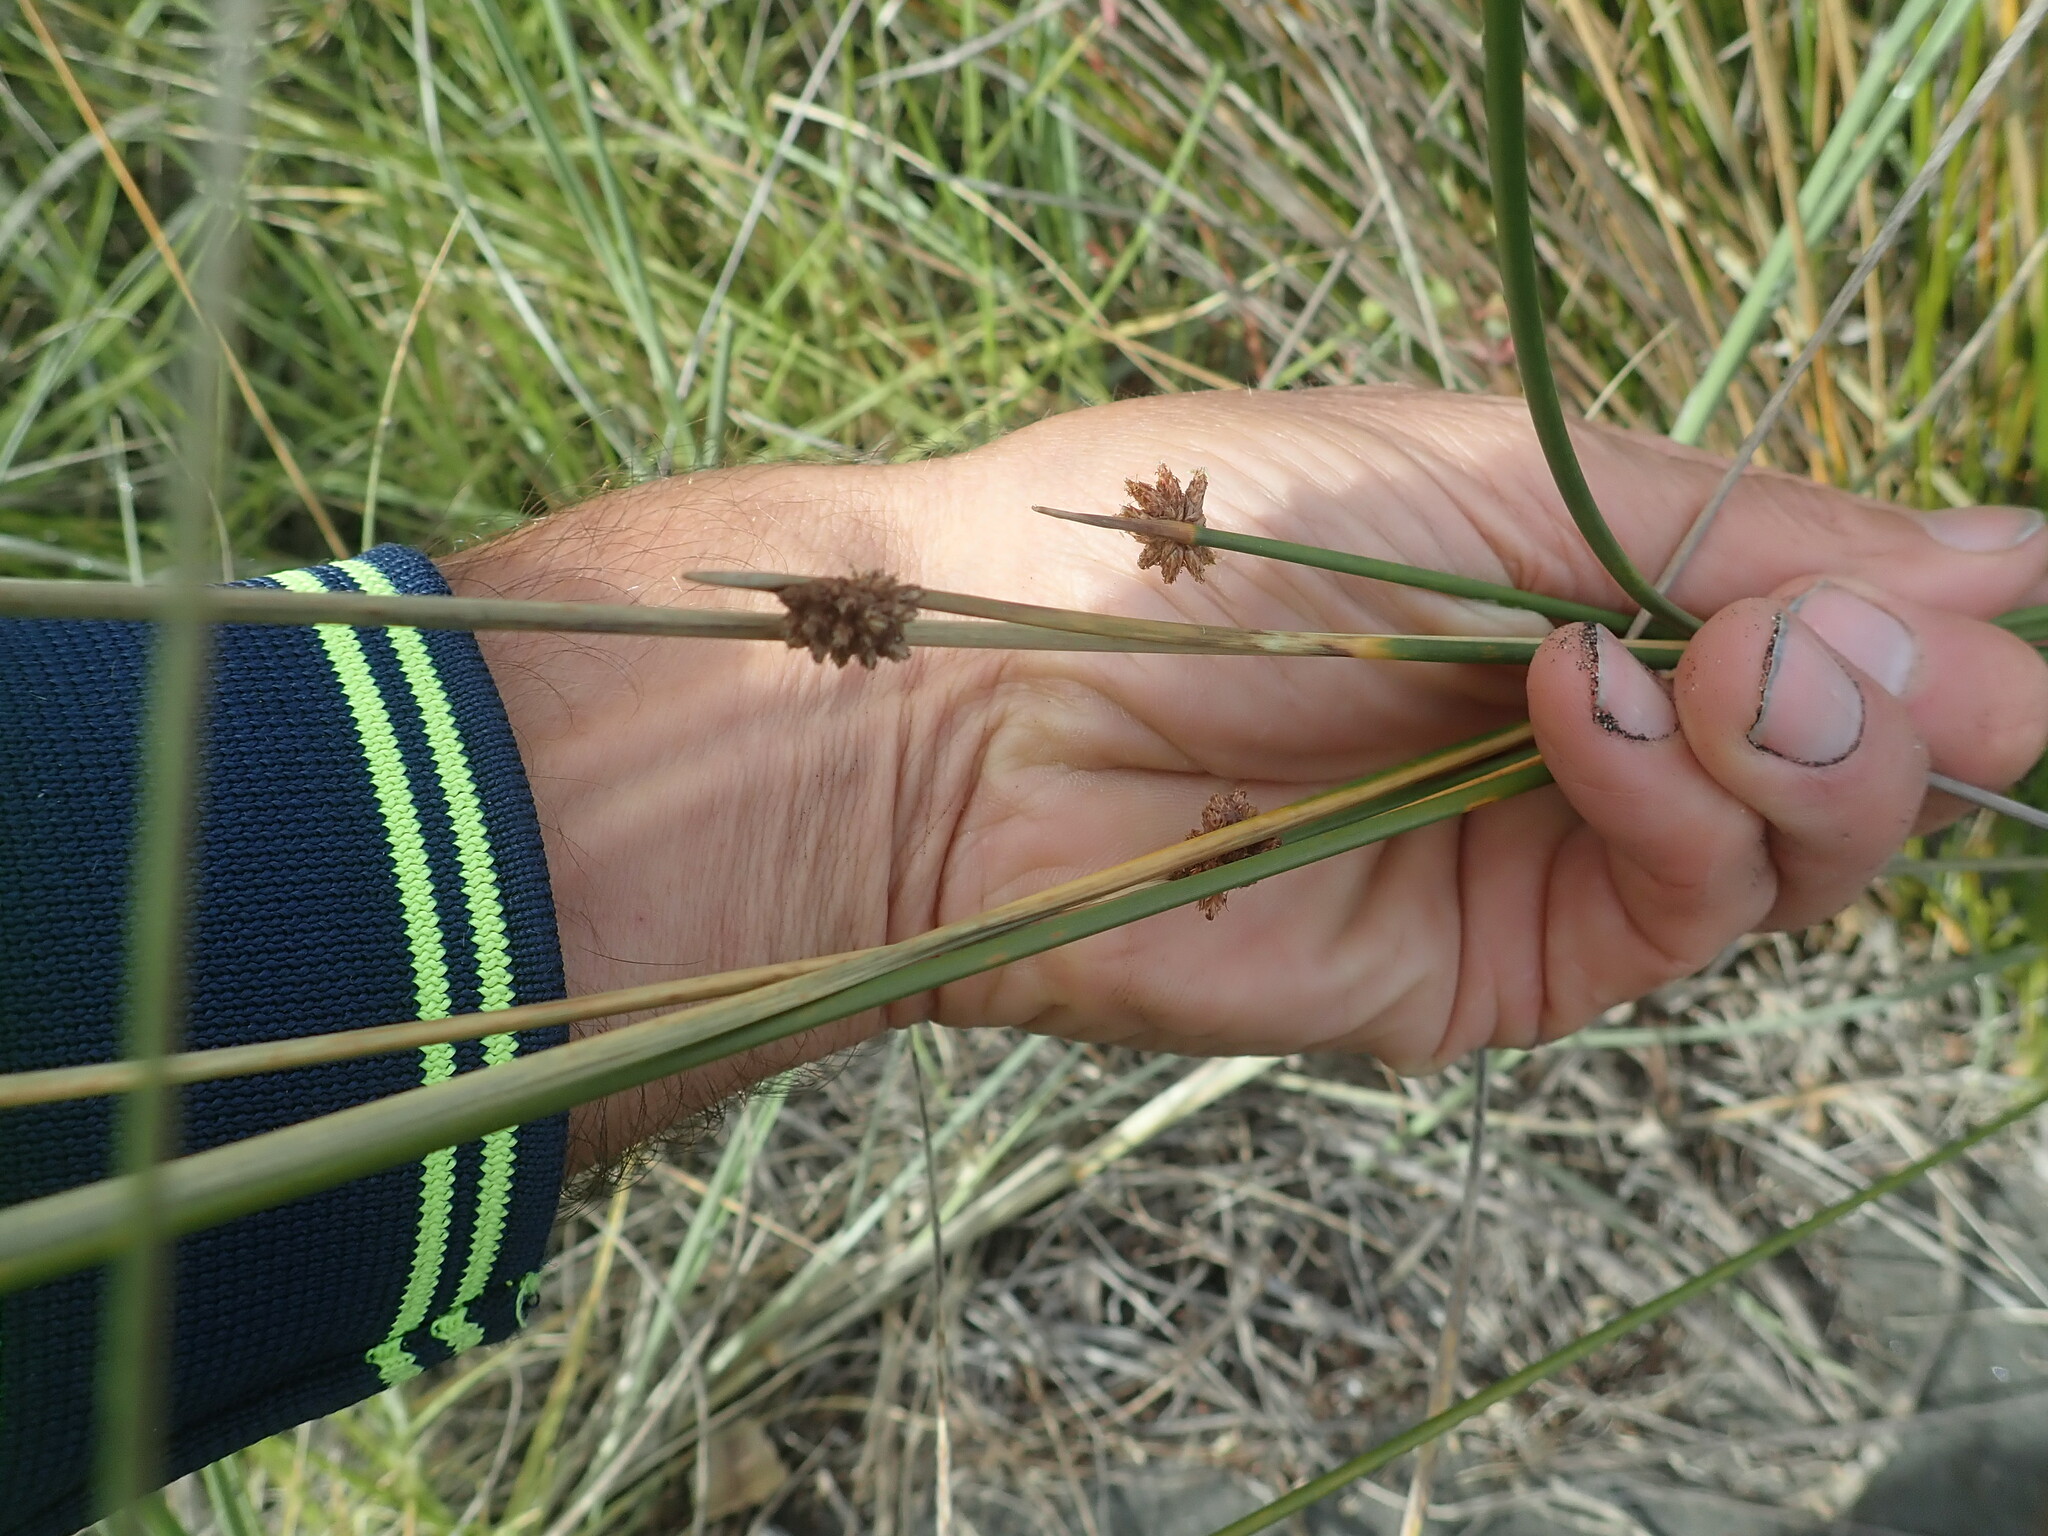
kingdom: Plantae
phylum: Tracheophyta
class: Liliopsida
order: Poales
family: Cyperaceae
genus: Ficinia
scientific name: Ficinia nodosa
